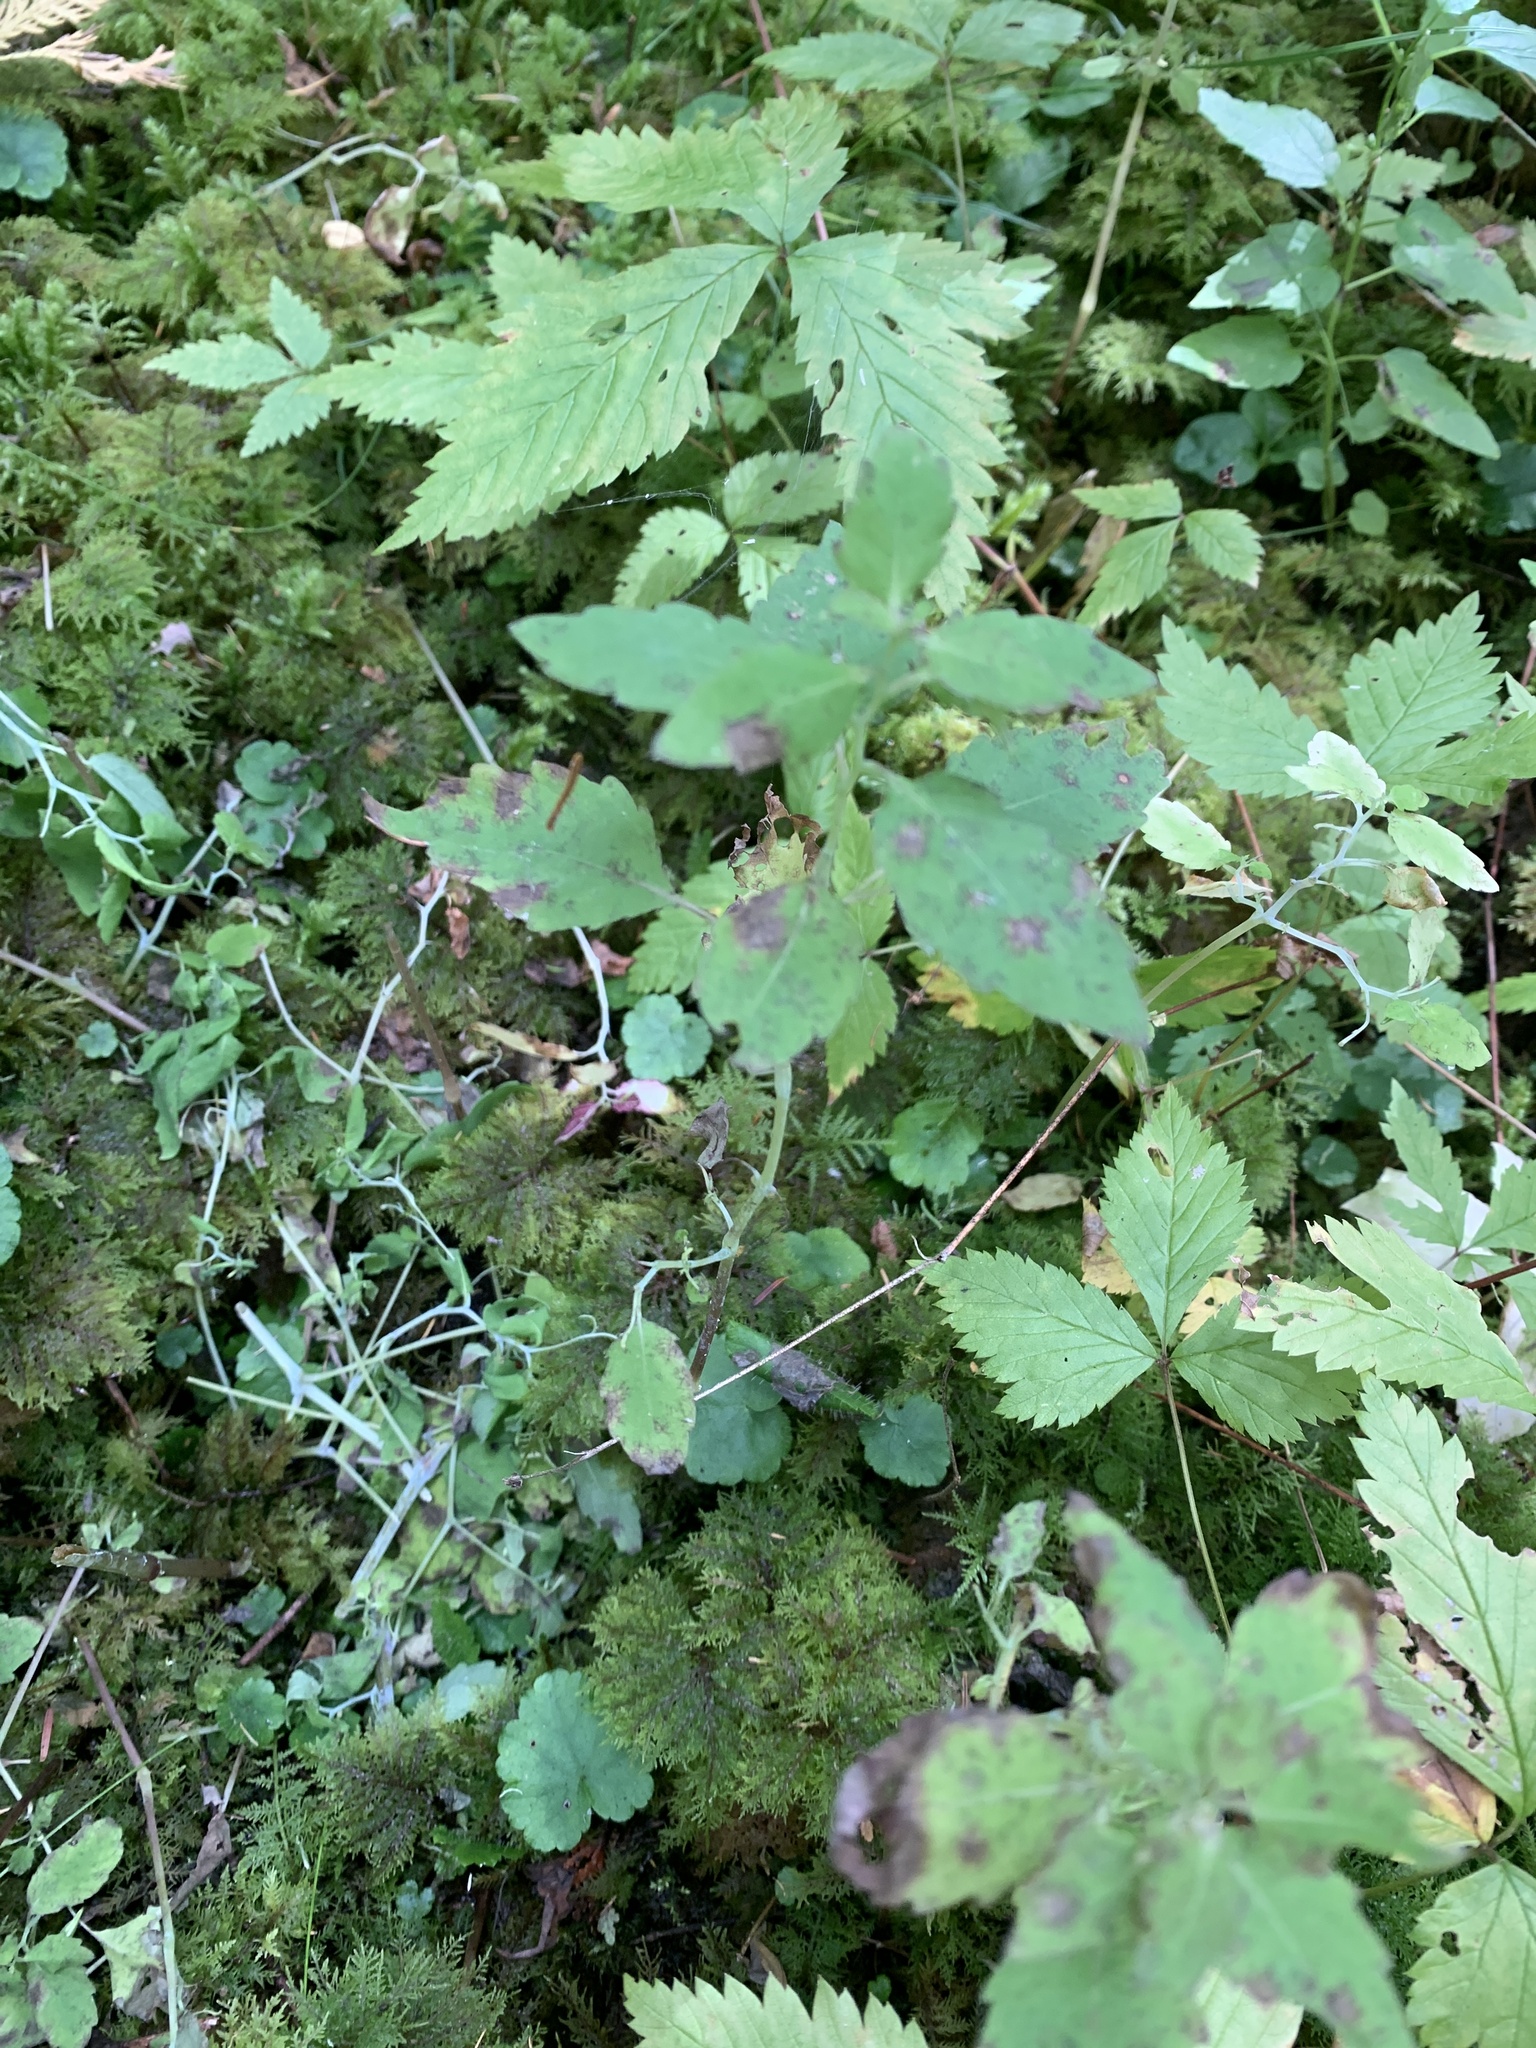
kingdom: Plantae
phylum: Tracheophyta
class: Magnoliopsida
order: Ericales
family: Balsaminaceae
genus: Impatiens
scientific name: Impatiens capensis
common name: Orange balsam
